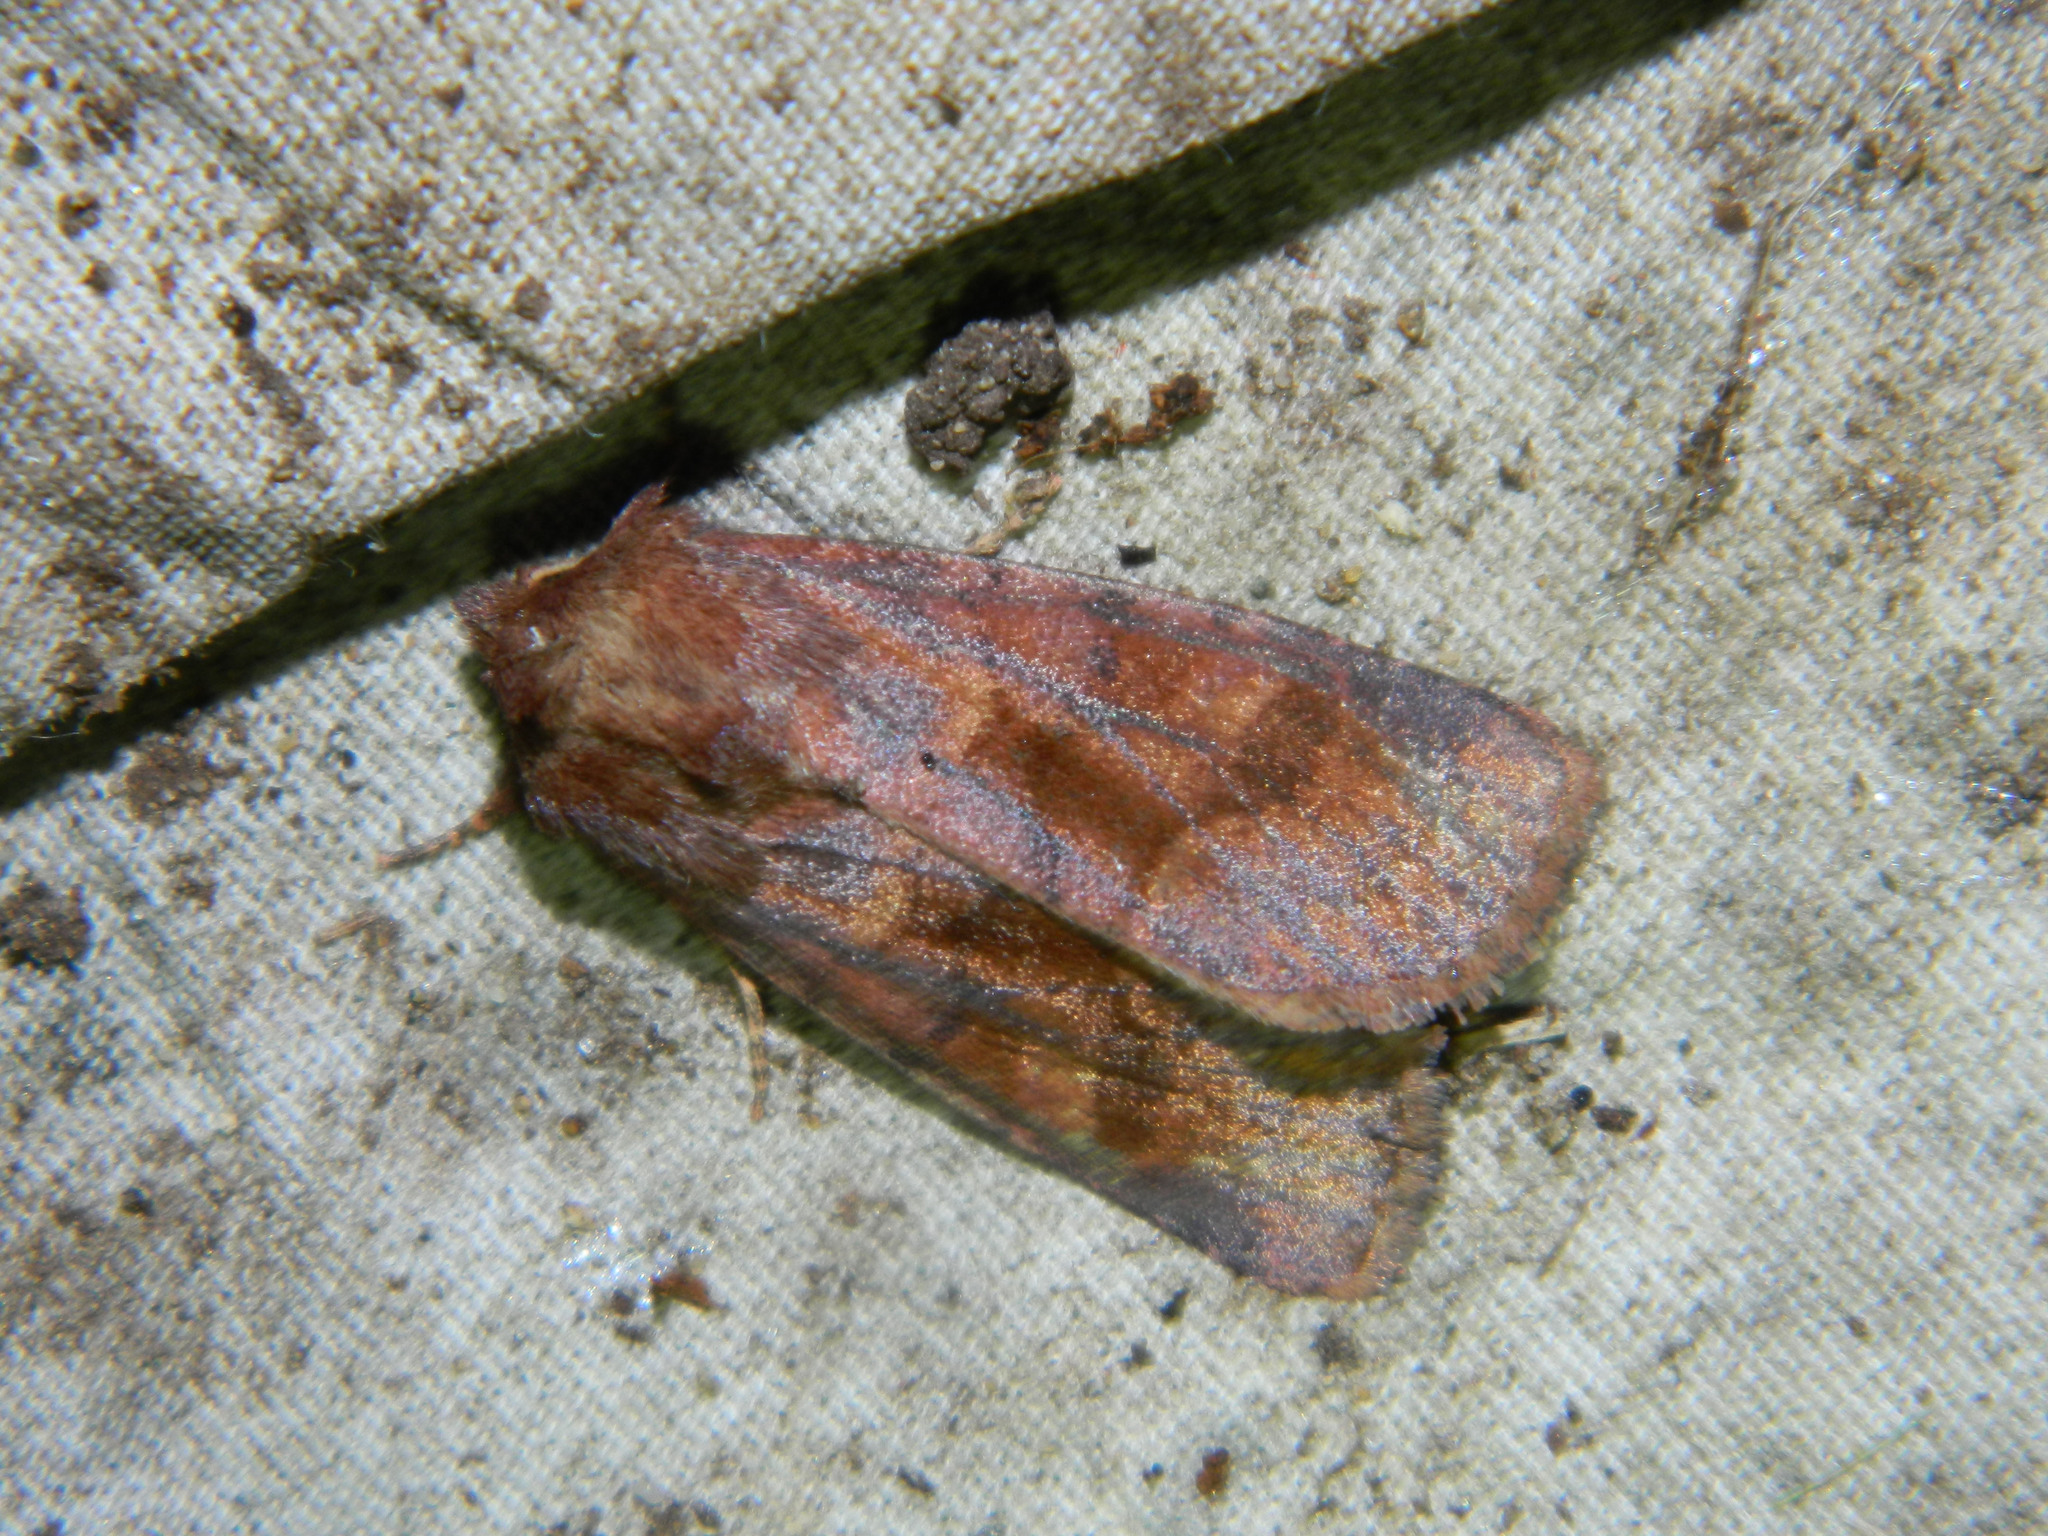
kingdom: Animalia
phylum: Arthropoda
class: Insecta
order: Lepidoptera
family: Noctuidae
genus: Nephelodes
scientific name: Nephelodes minians
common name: Bronzed cutworm
